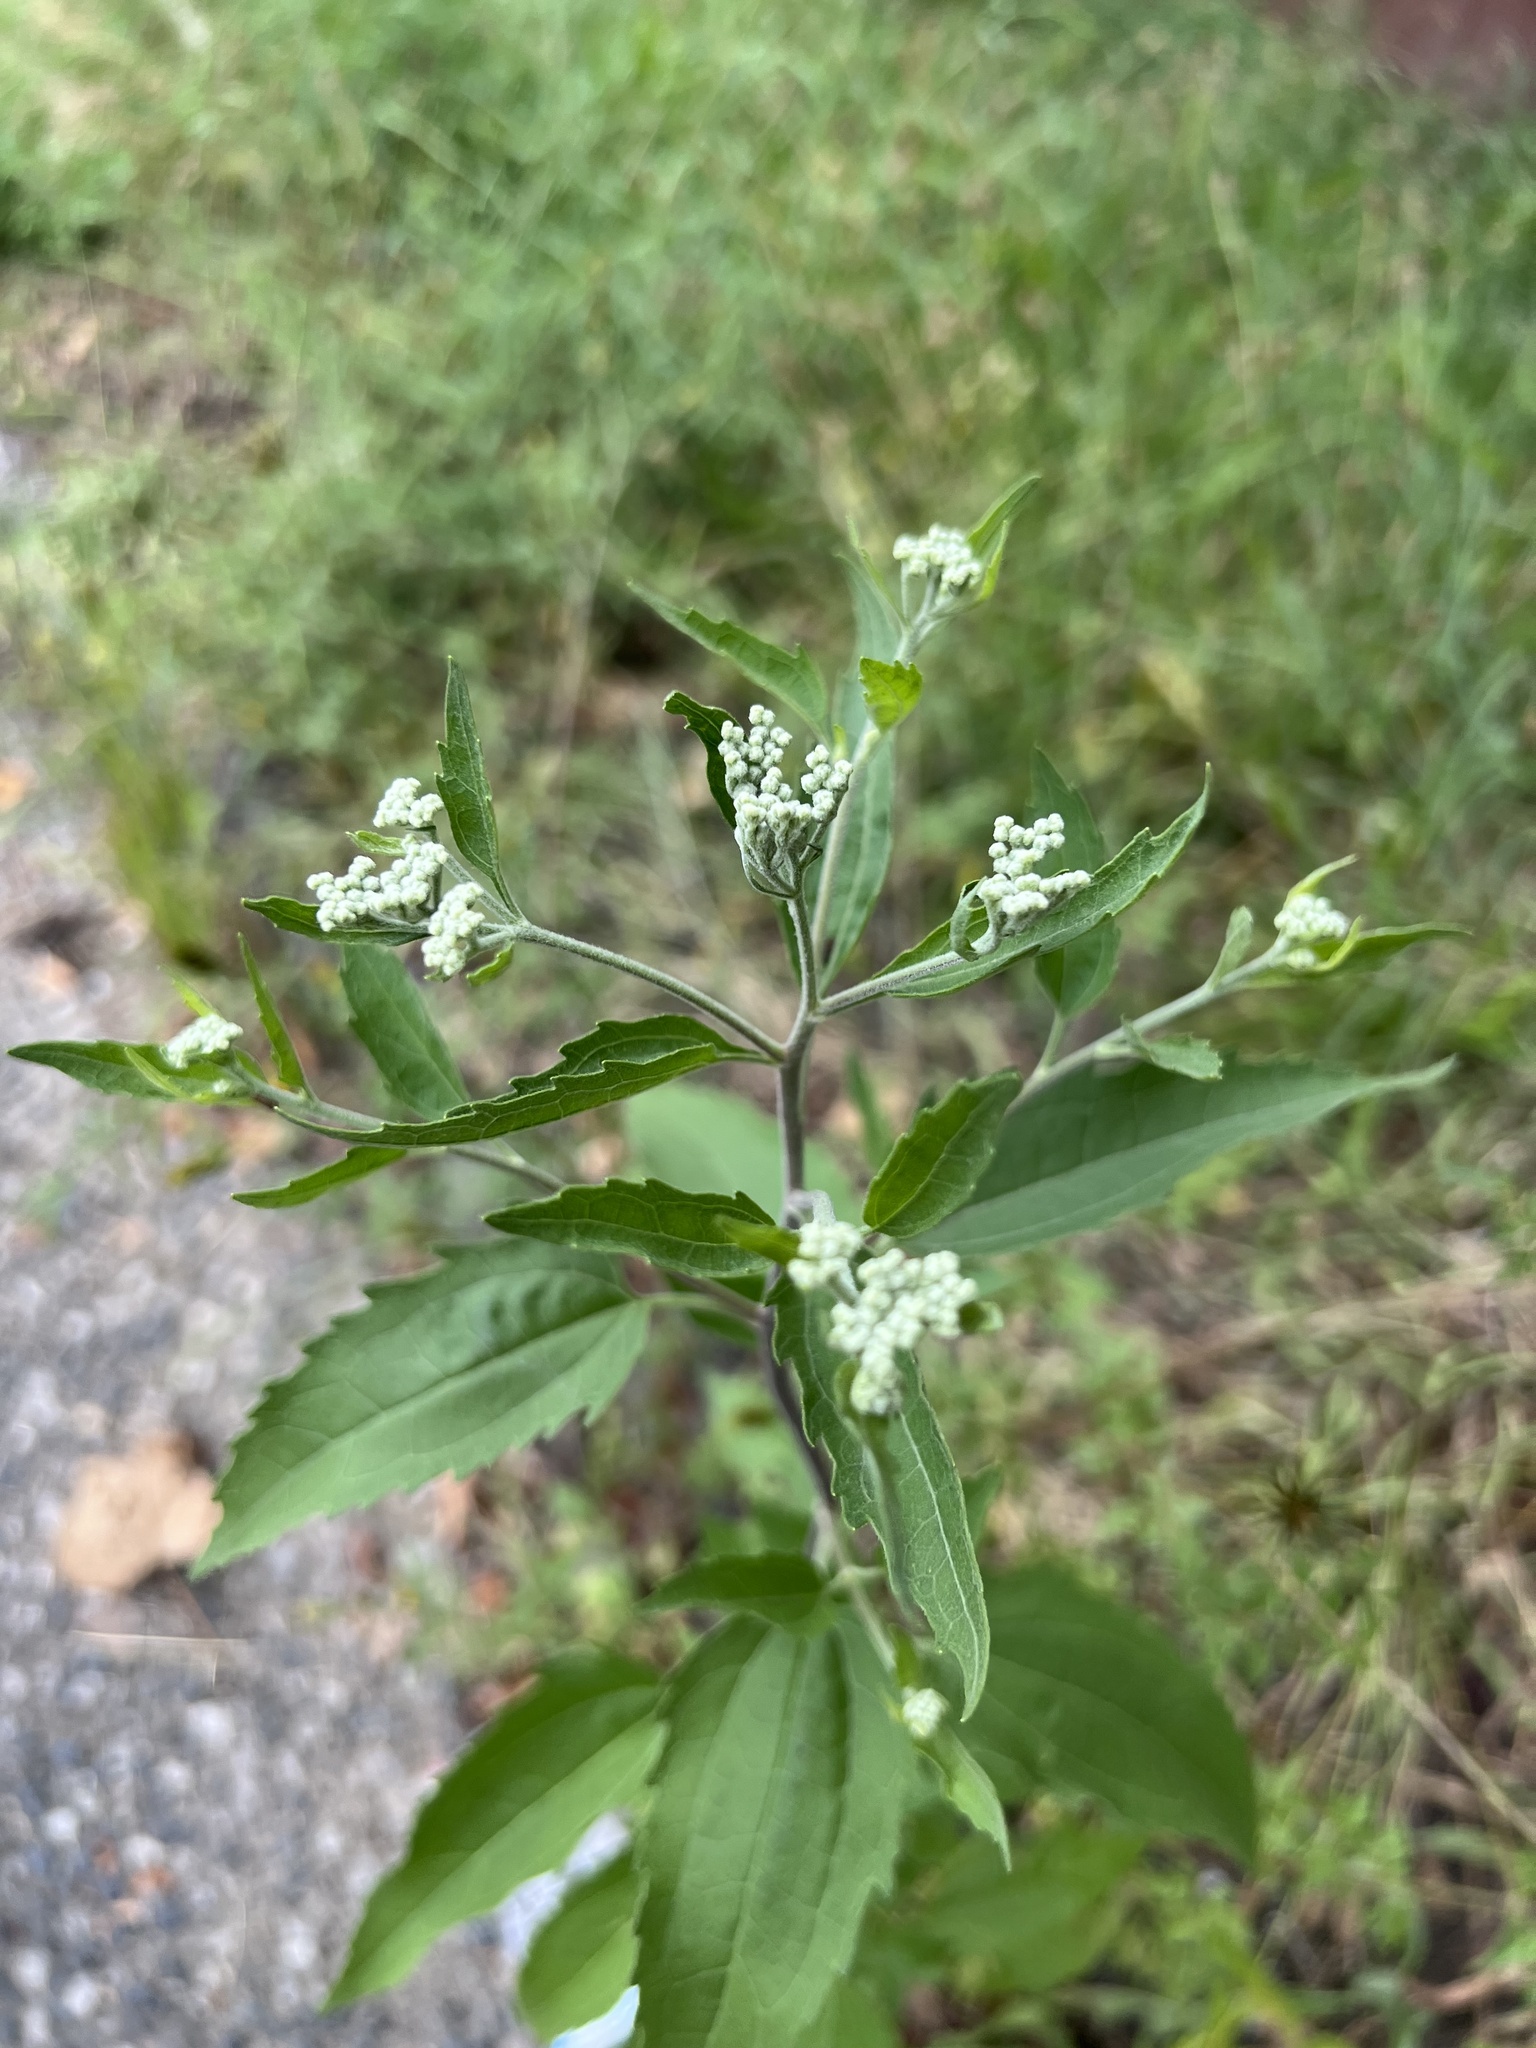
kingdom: Plantae
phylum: Tracheophyta
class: Magnoliopsida
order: Asterales
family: Asteraceae
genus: Eupatorium
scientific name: Eupatorium serotinum
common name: Late boneset
